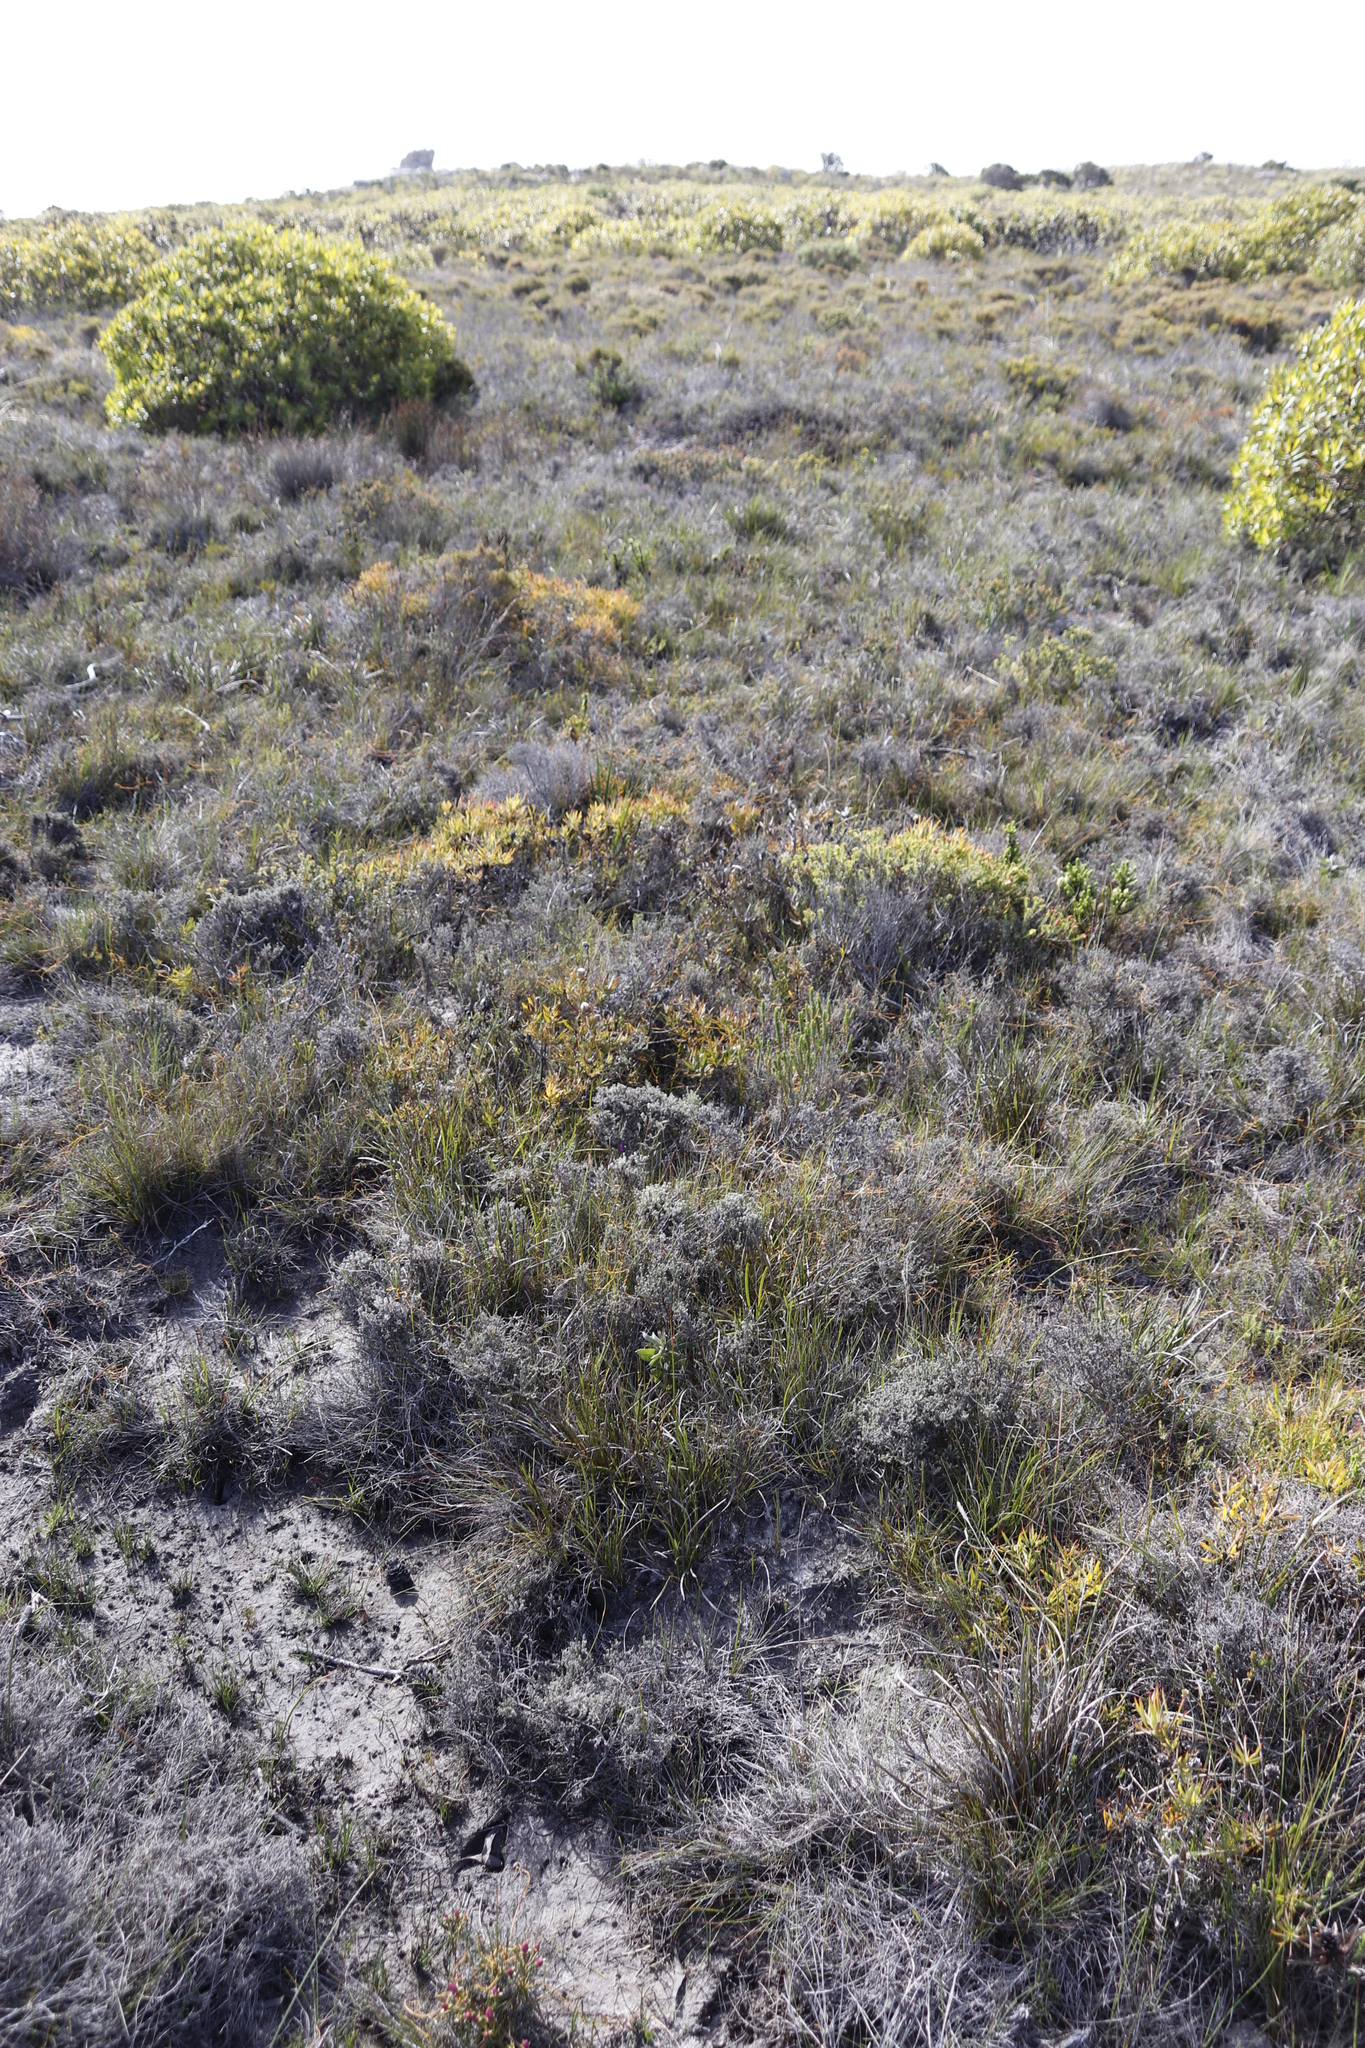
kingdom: Plantae
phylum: Tracheophyta
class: Magnoliopsida
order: Proteales
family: Proteaceae
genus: Leucadendron
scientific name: Leucadendron salignum
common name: Common sunshine conebush
